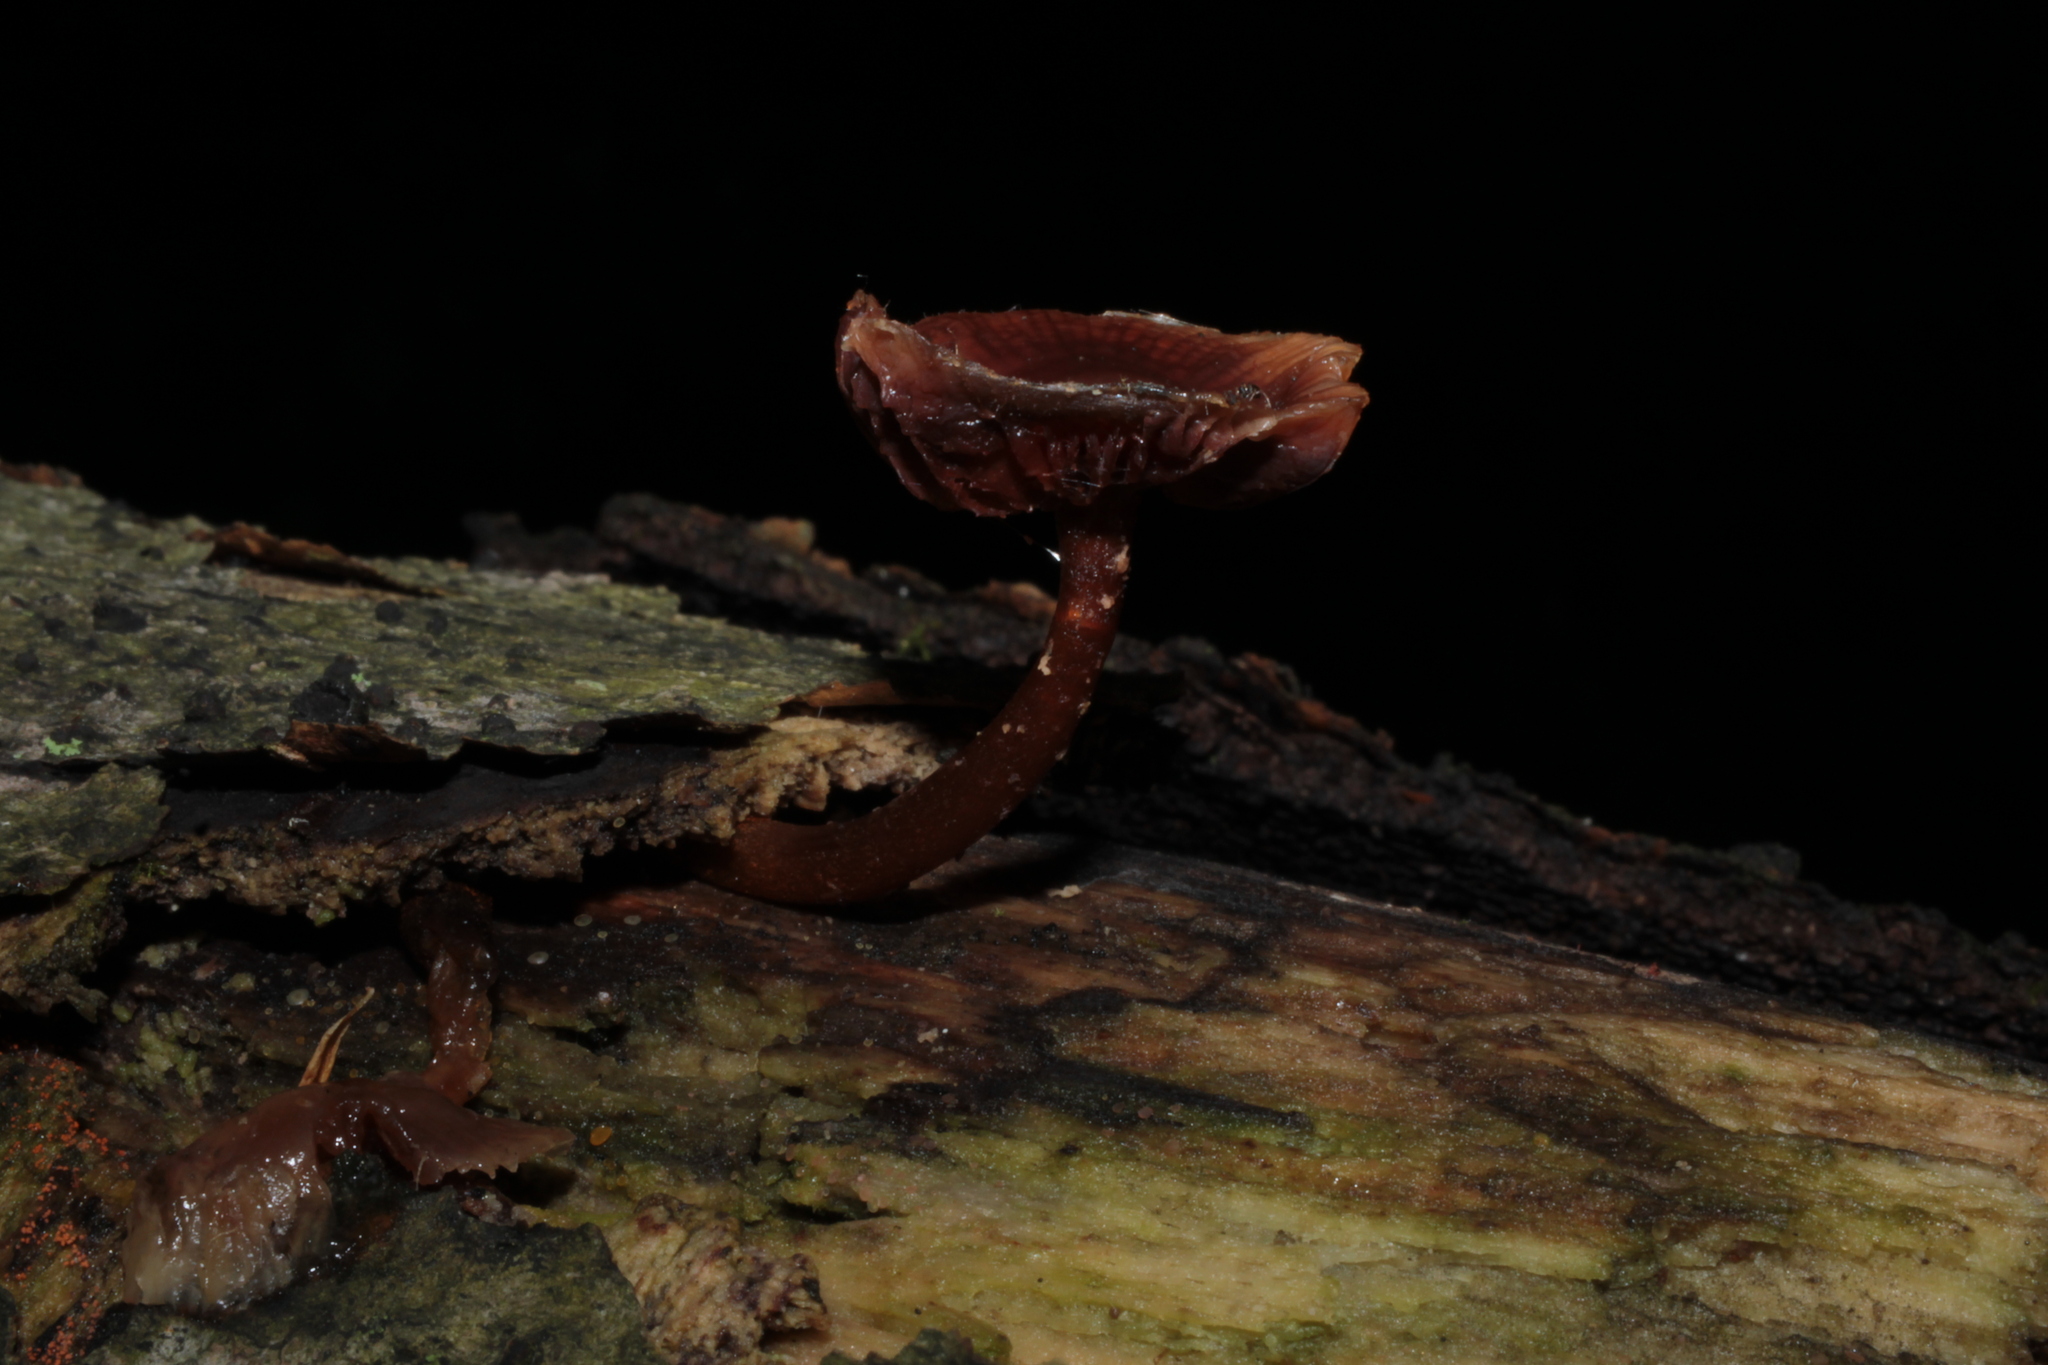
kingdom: Fungi
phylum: Basidiomycota
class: Agaricomycetes
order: Agaricales
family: Crepidotaceae
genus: Simocybe
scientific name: Simocybe serrulata
